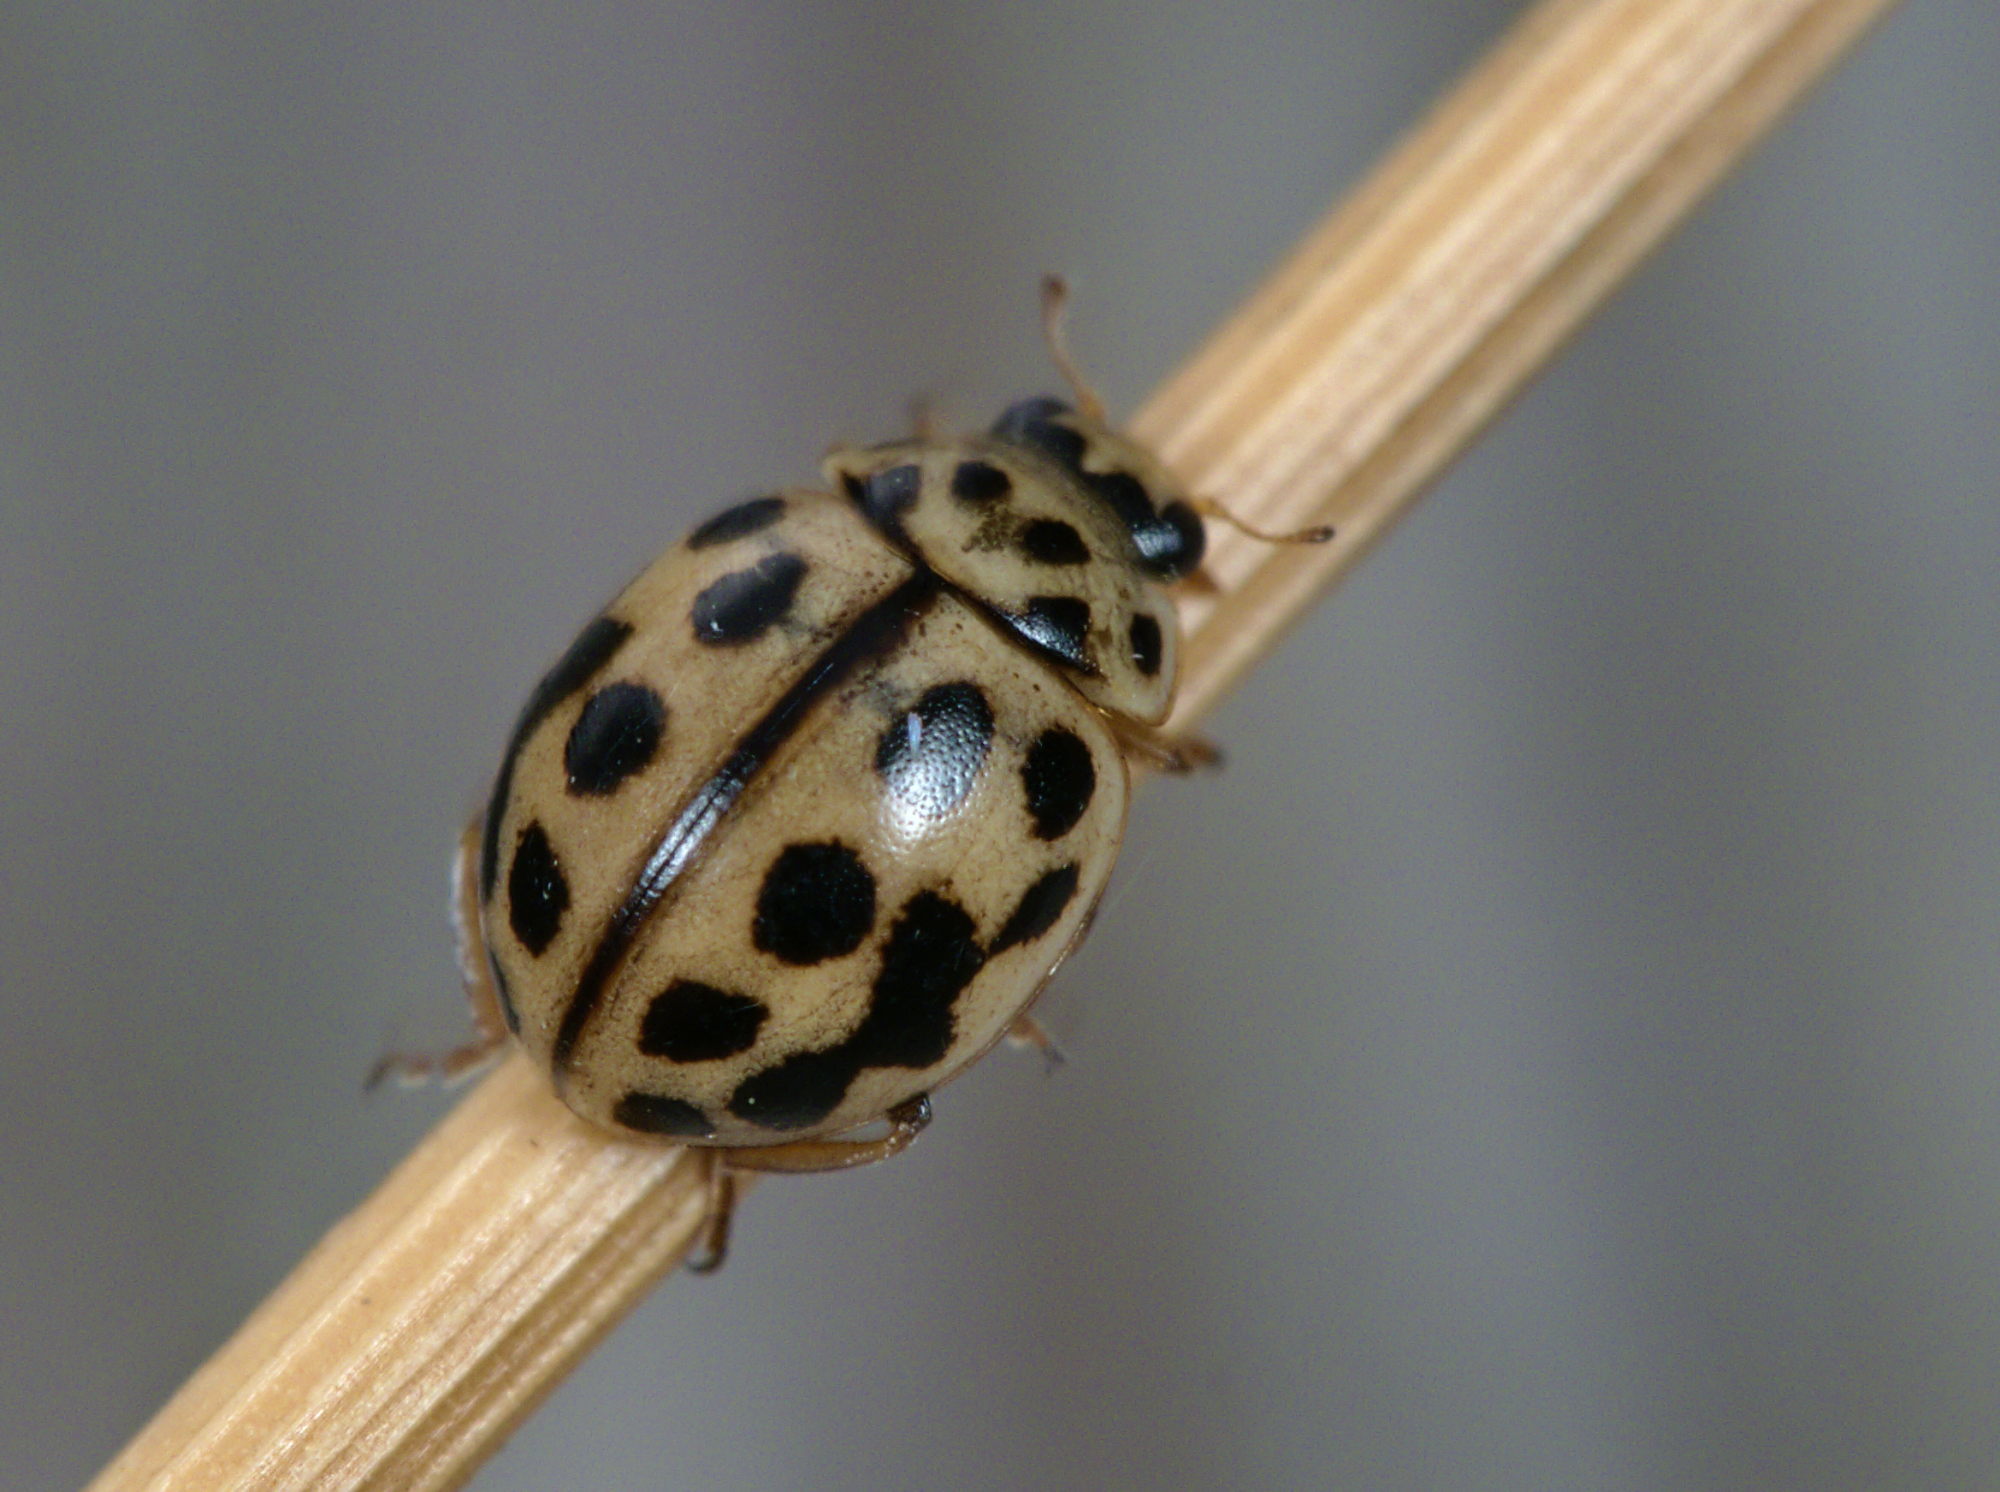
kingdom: Animalia
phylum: Arthropoda
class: Insecta
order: Coleoptera
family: Coccinellidae
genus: Tytthaspis
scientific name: Tytthaspis sedecimpunctata
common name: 16-spot ladybird
